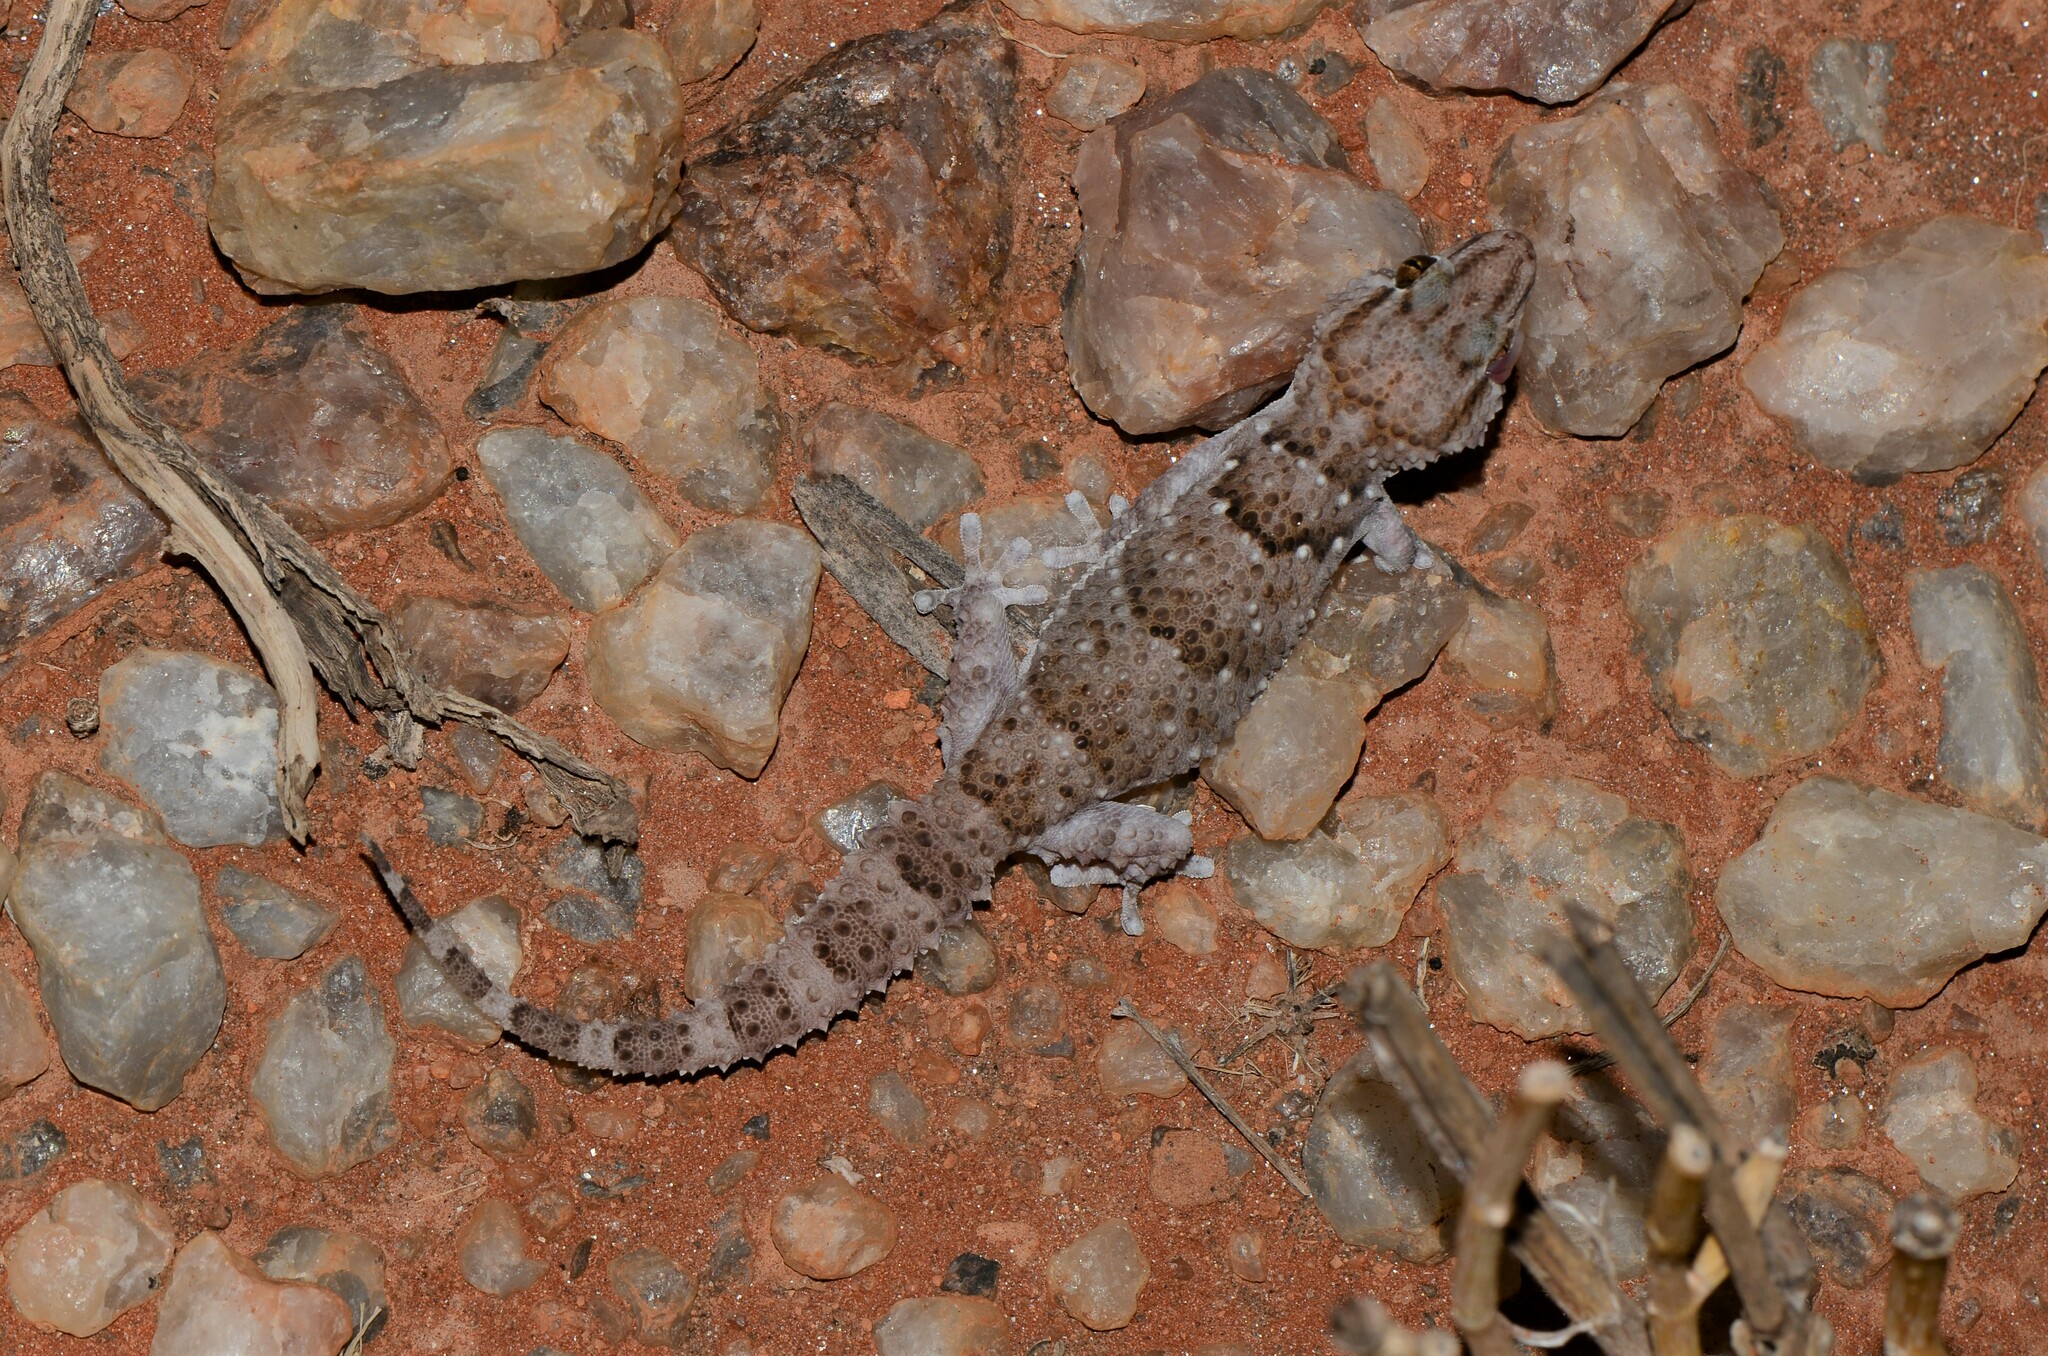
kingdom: Animalia
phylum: Chordata
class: Squamata
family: Gekkonidae
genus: Chondrodactylus
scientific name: Chondrodactylus laevigatus
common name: Fischer's thick-toed gecko
